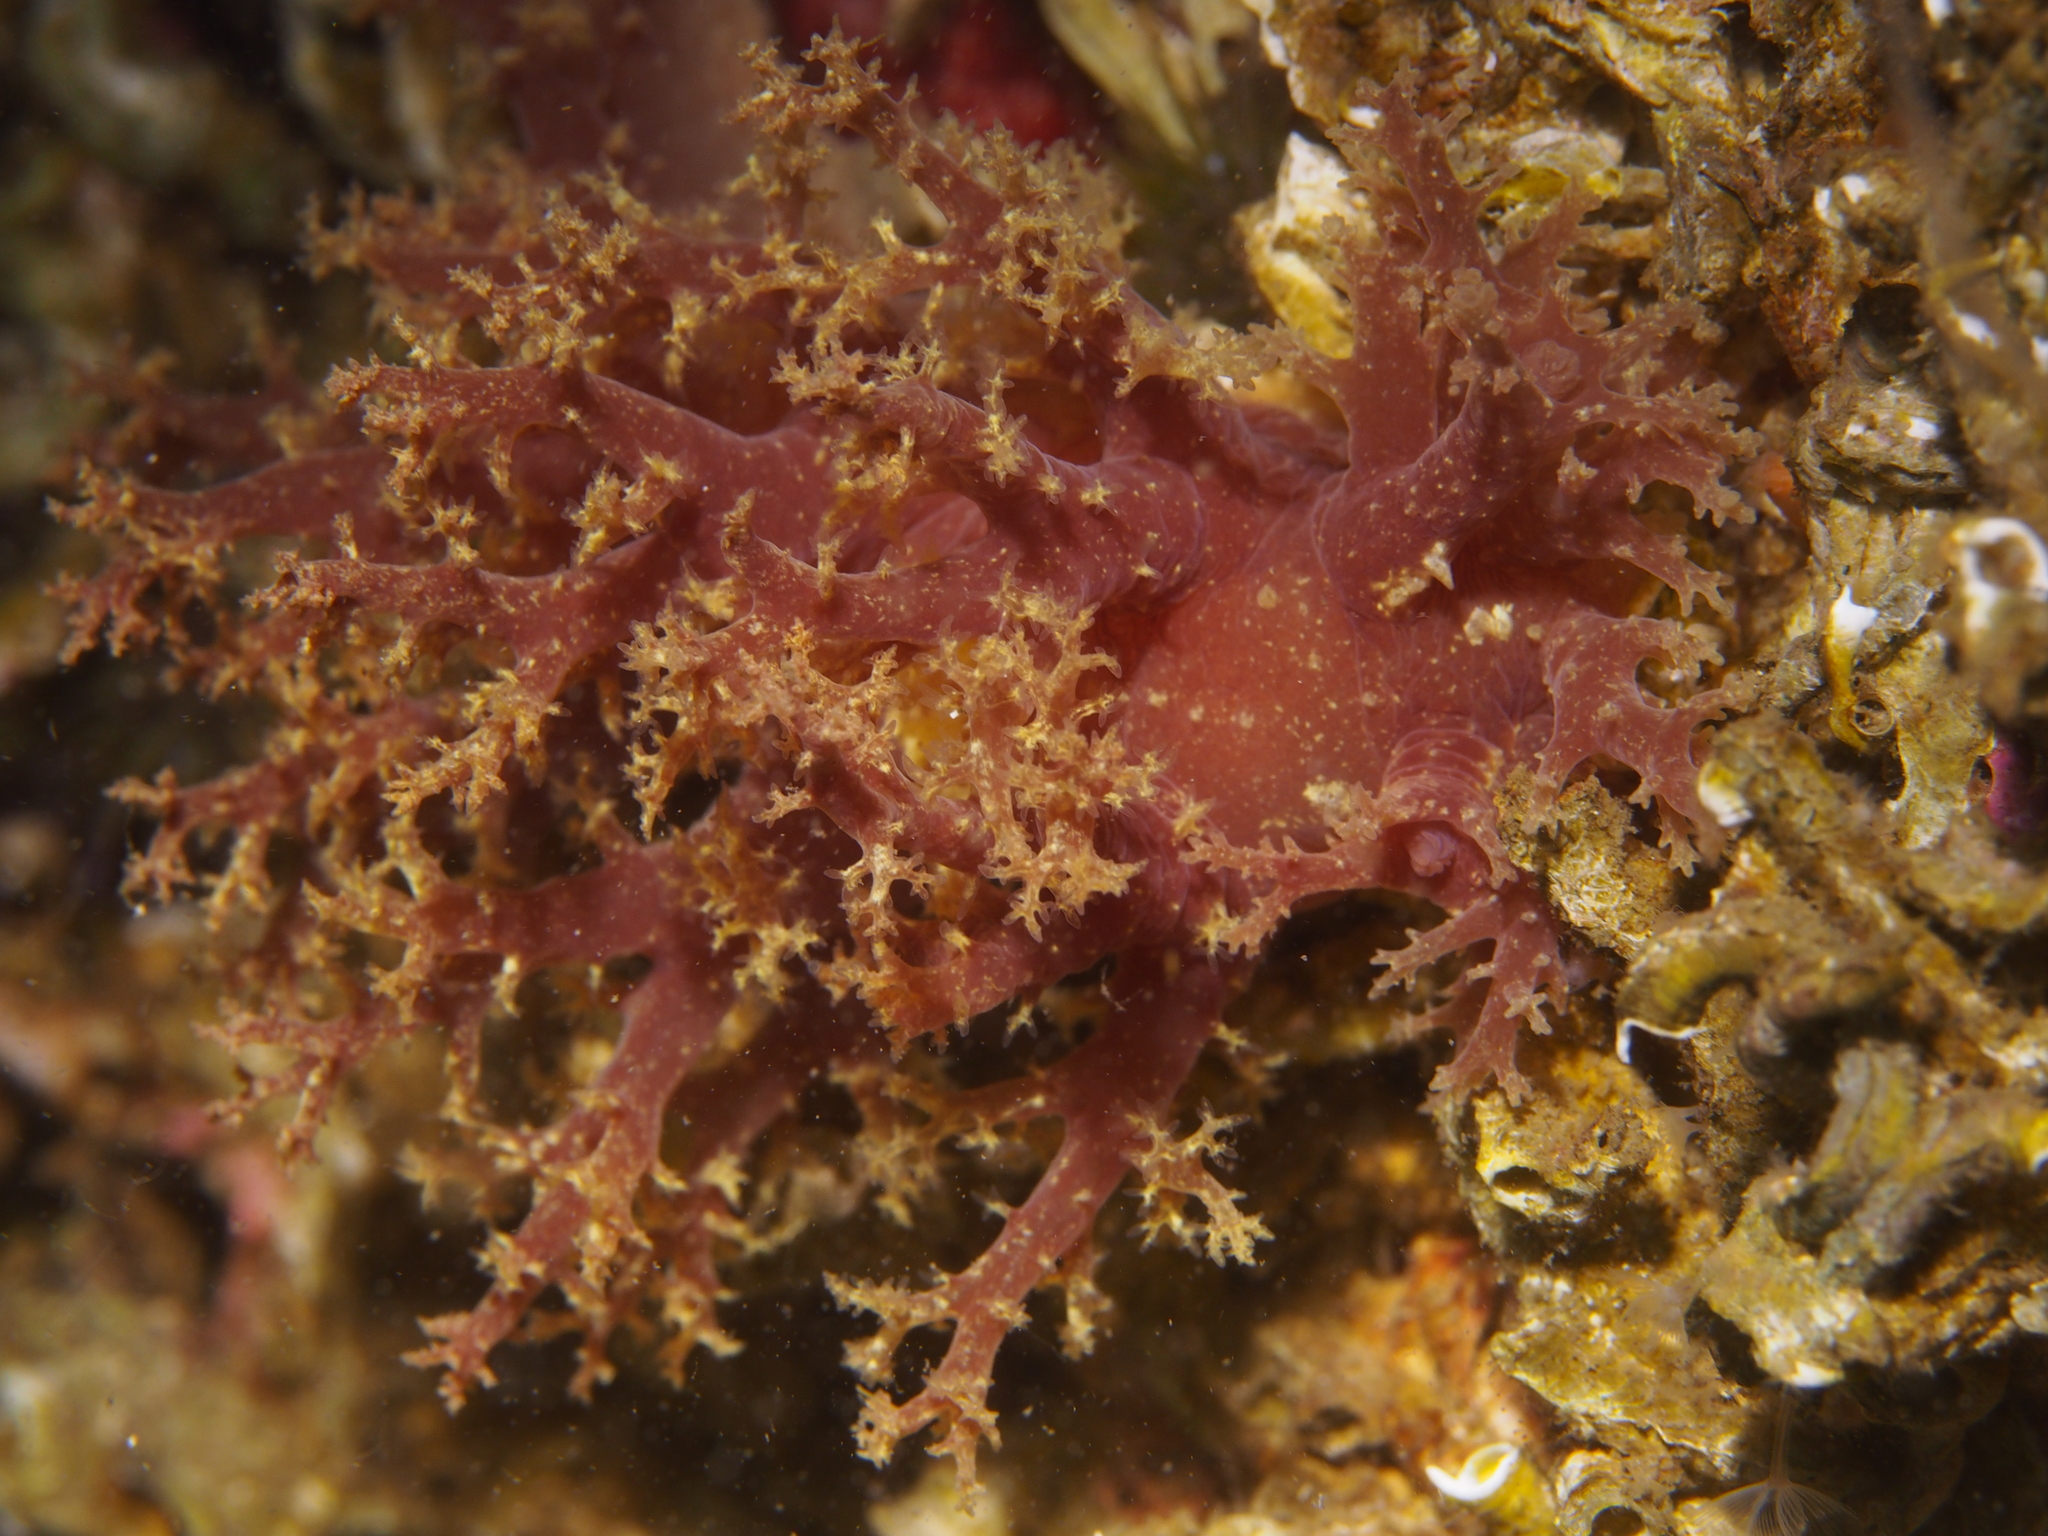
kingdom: Animalia
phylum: Mollusca
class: Gastropoda
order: Nudibranchia
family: Dendronotidae
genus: Dendronotus
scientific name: Dendronotus lacteus
